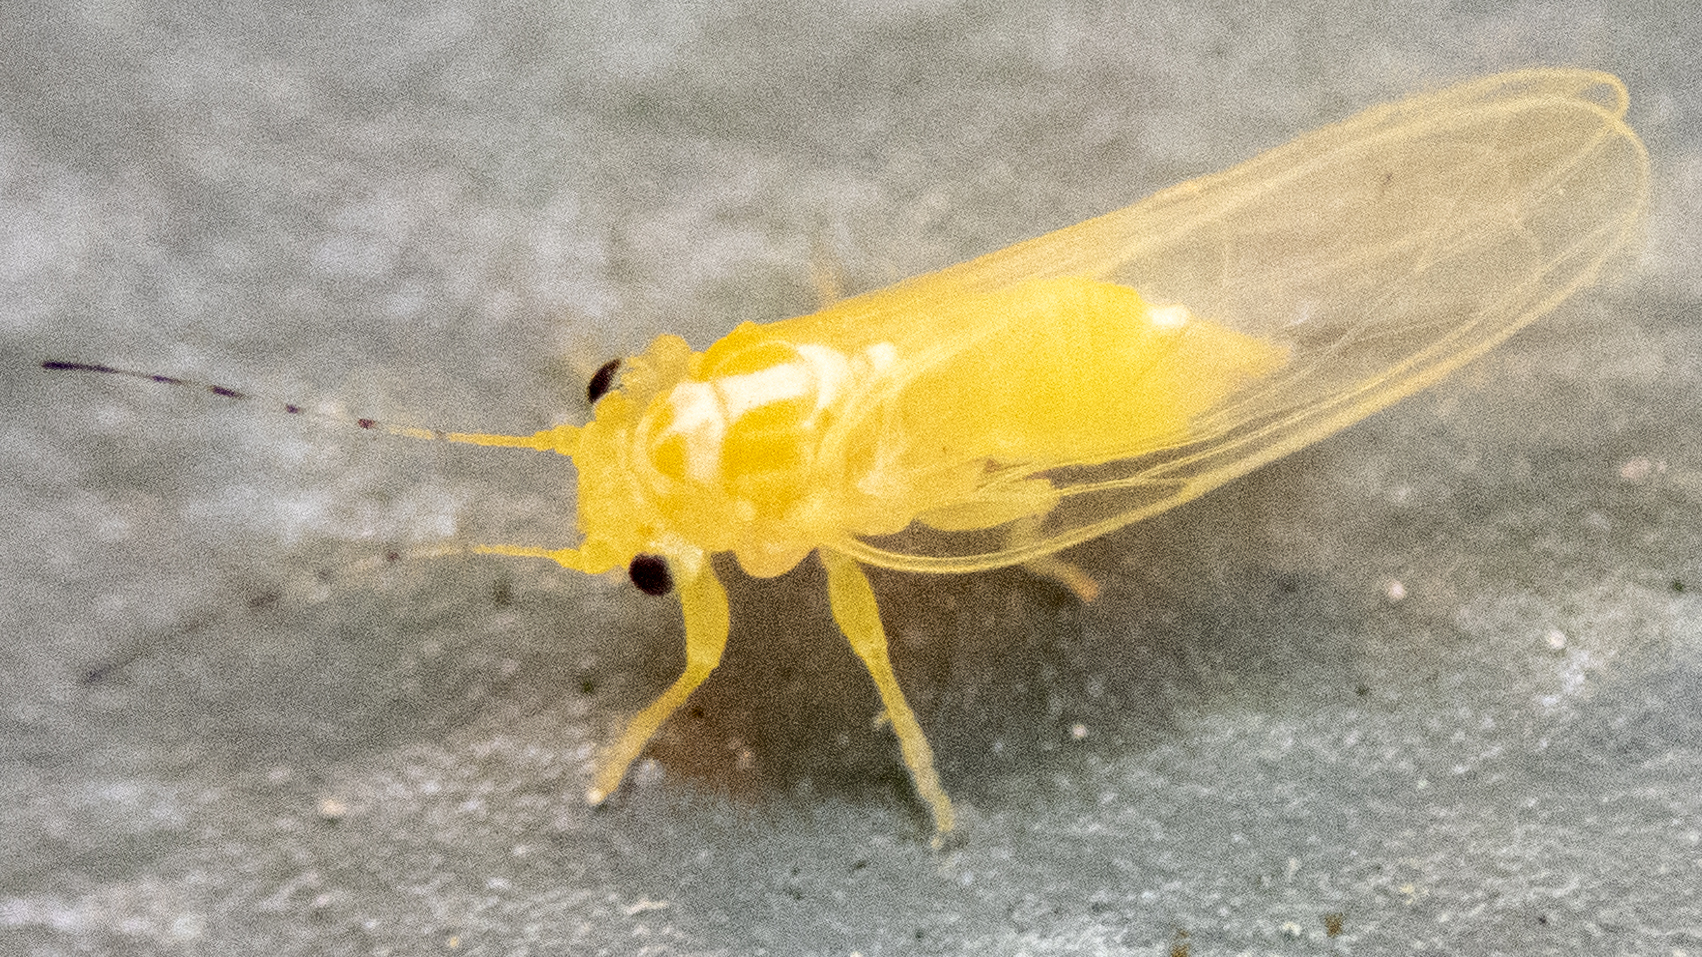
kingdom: Animalia
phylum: Arthropoda
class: Insecta
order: Hemiptera
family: Psyllidae
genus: Cacopsylla
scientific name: Cacopsylla annulata
